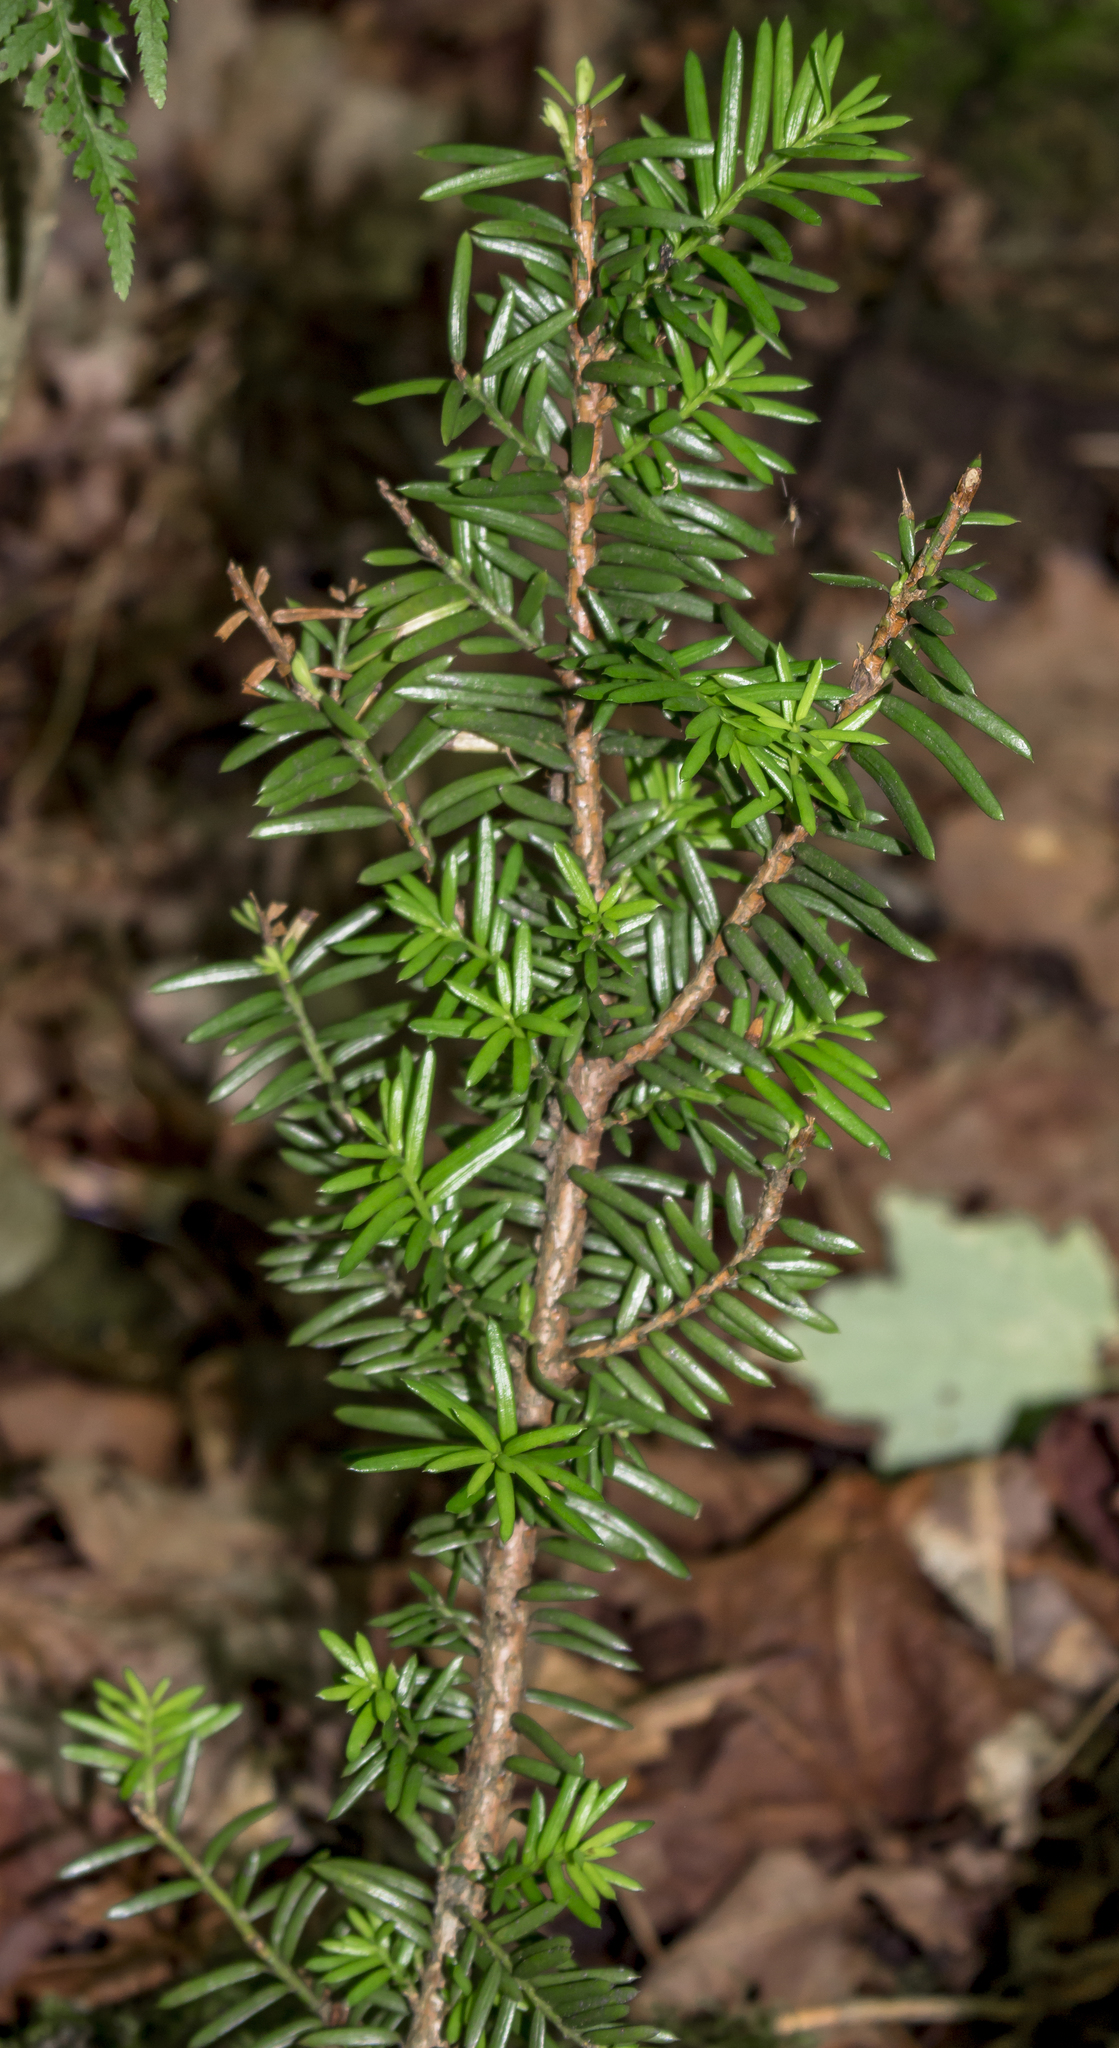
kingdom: Plantae
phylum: Tracheophyta
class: Pinopsida
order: Pinales
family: Taxaceae
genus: Taxus
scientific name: Taxus canadensis
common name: American yew
